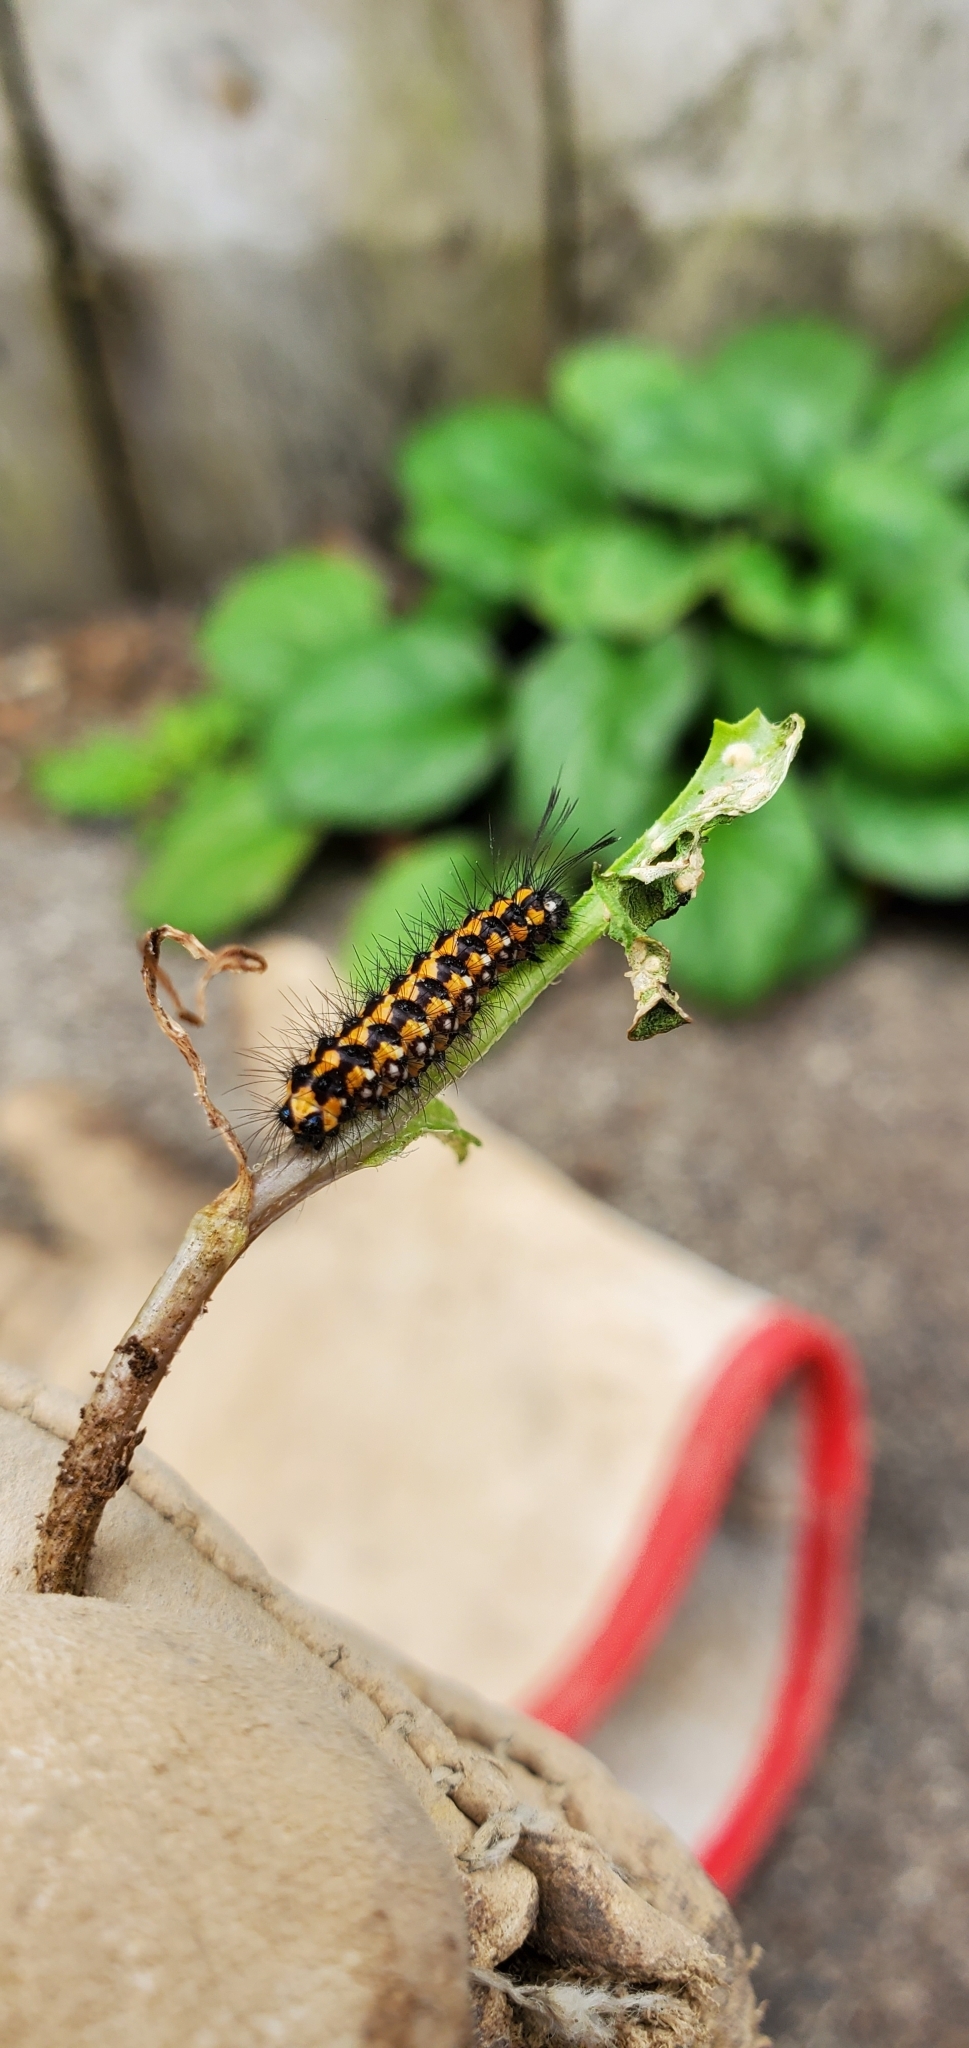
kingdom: Animalia
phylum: Arthropoda
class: Insecta
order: Lepidoptera
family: Erebidae
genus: Nyctemera
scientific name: Nyctemera amicus
